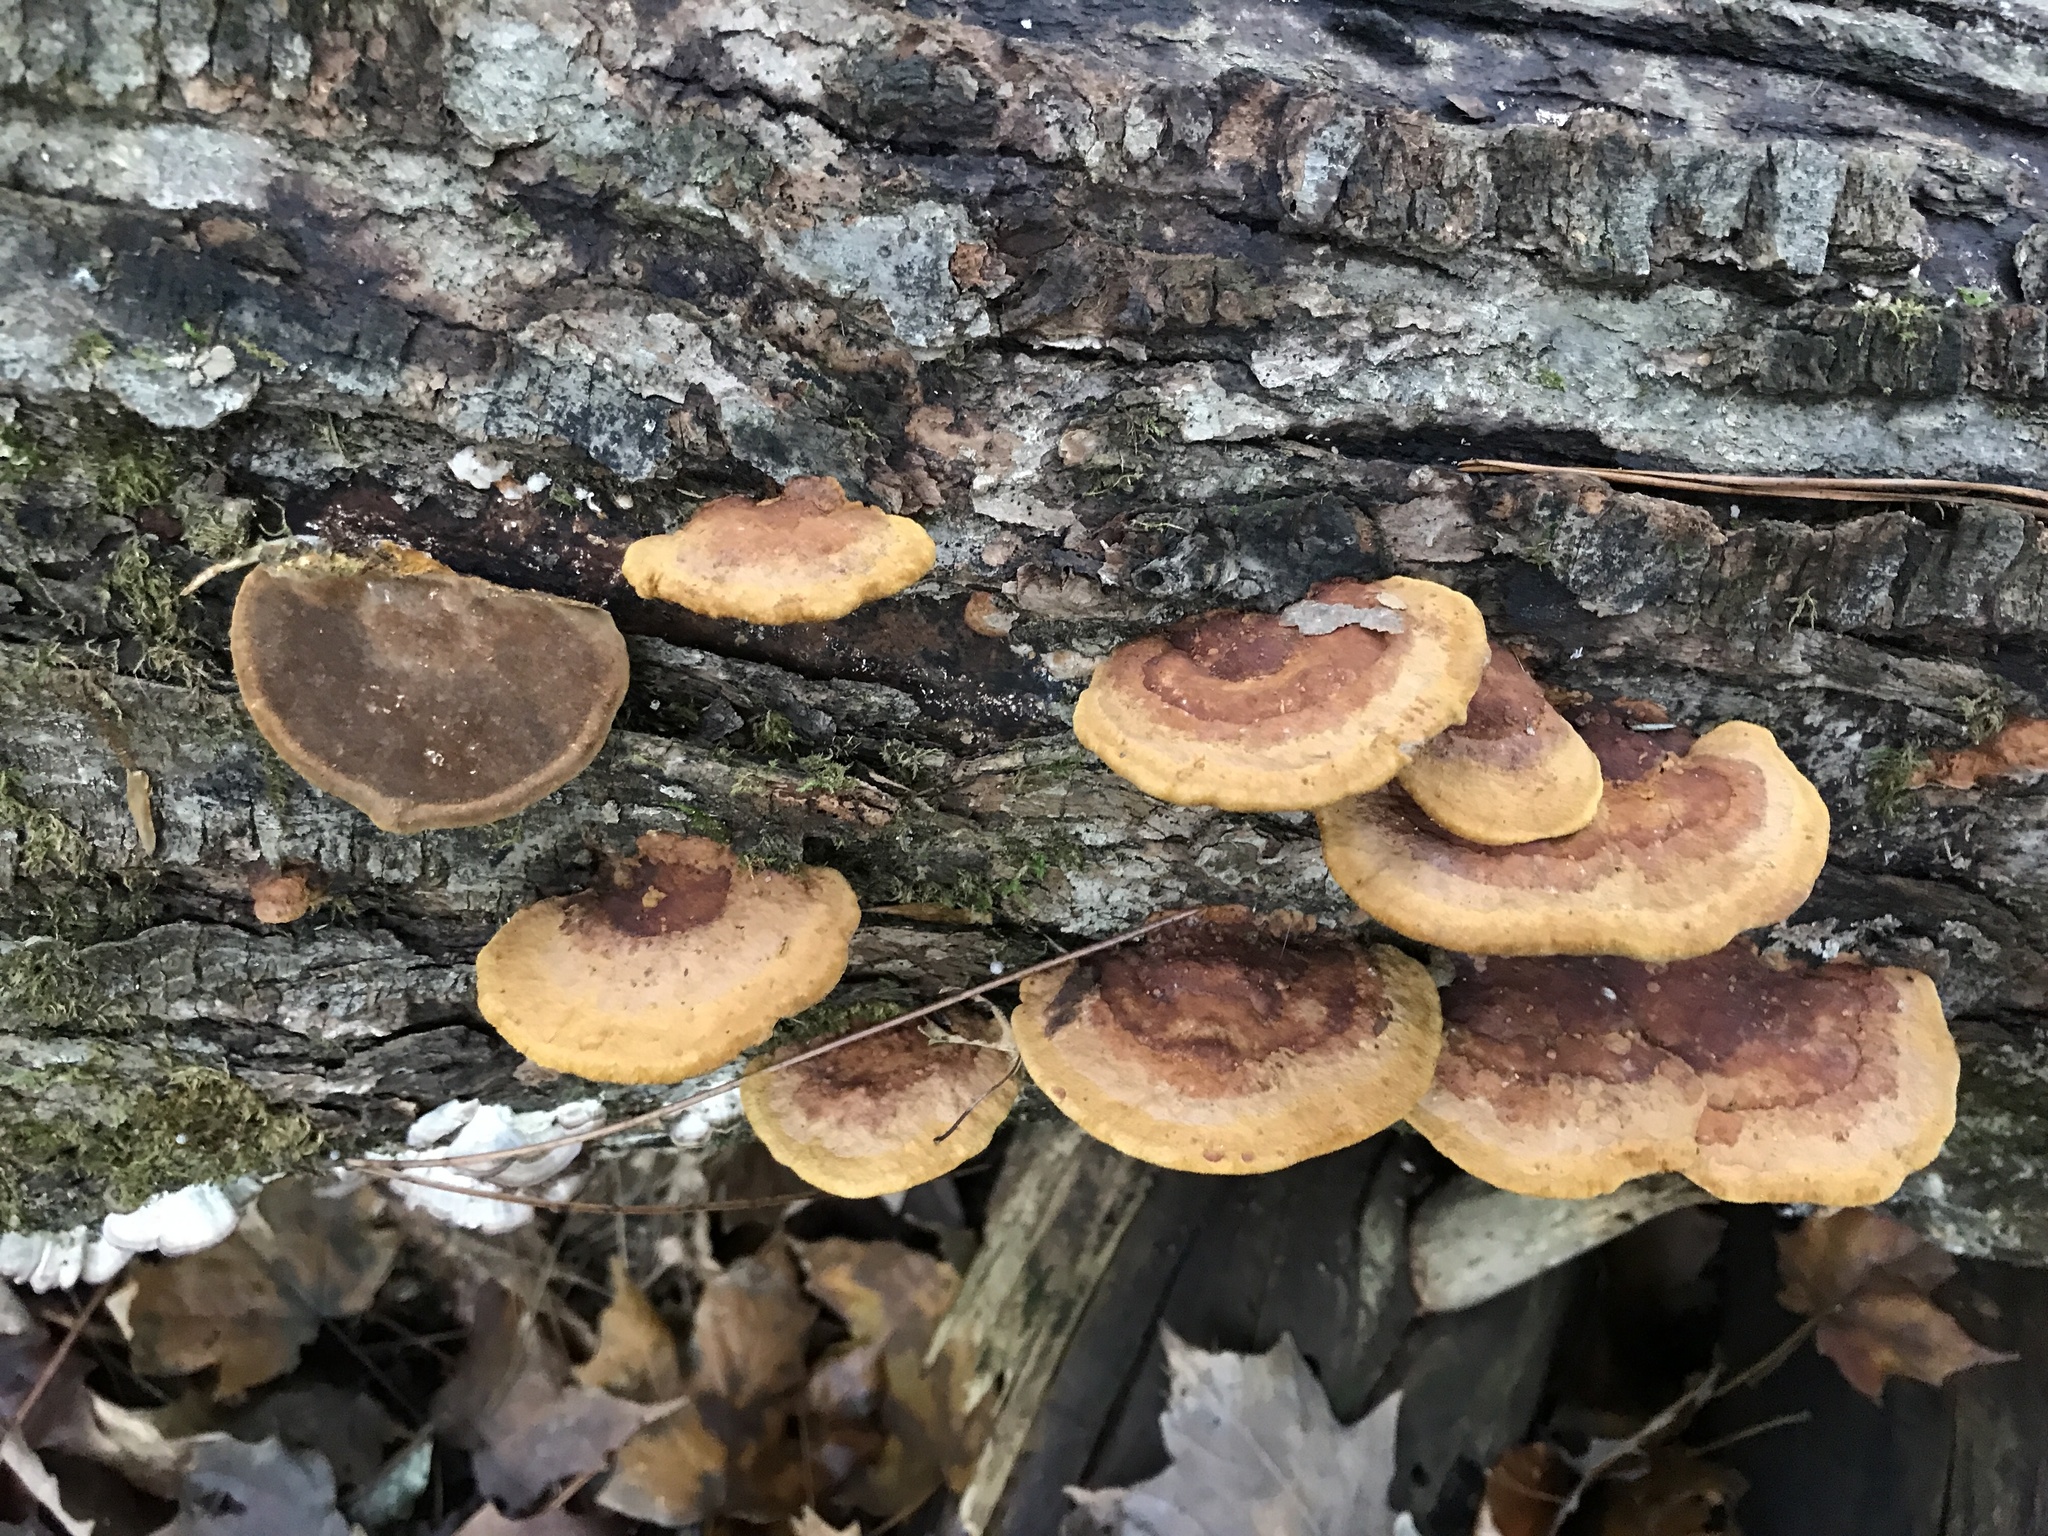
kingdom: Fungi
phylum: Basidiomycota
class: Agaricomycetes
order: Hymenochaetales
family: Hymenochaetaceae
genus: Phellinus
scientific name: Phellinus gilvus
